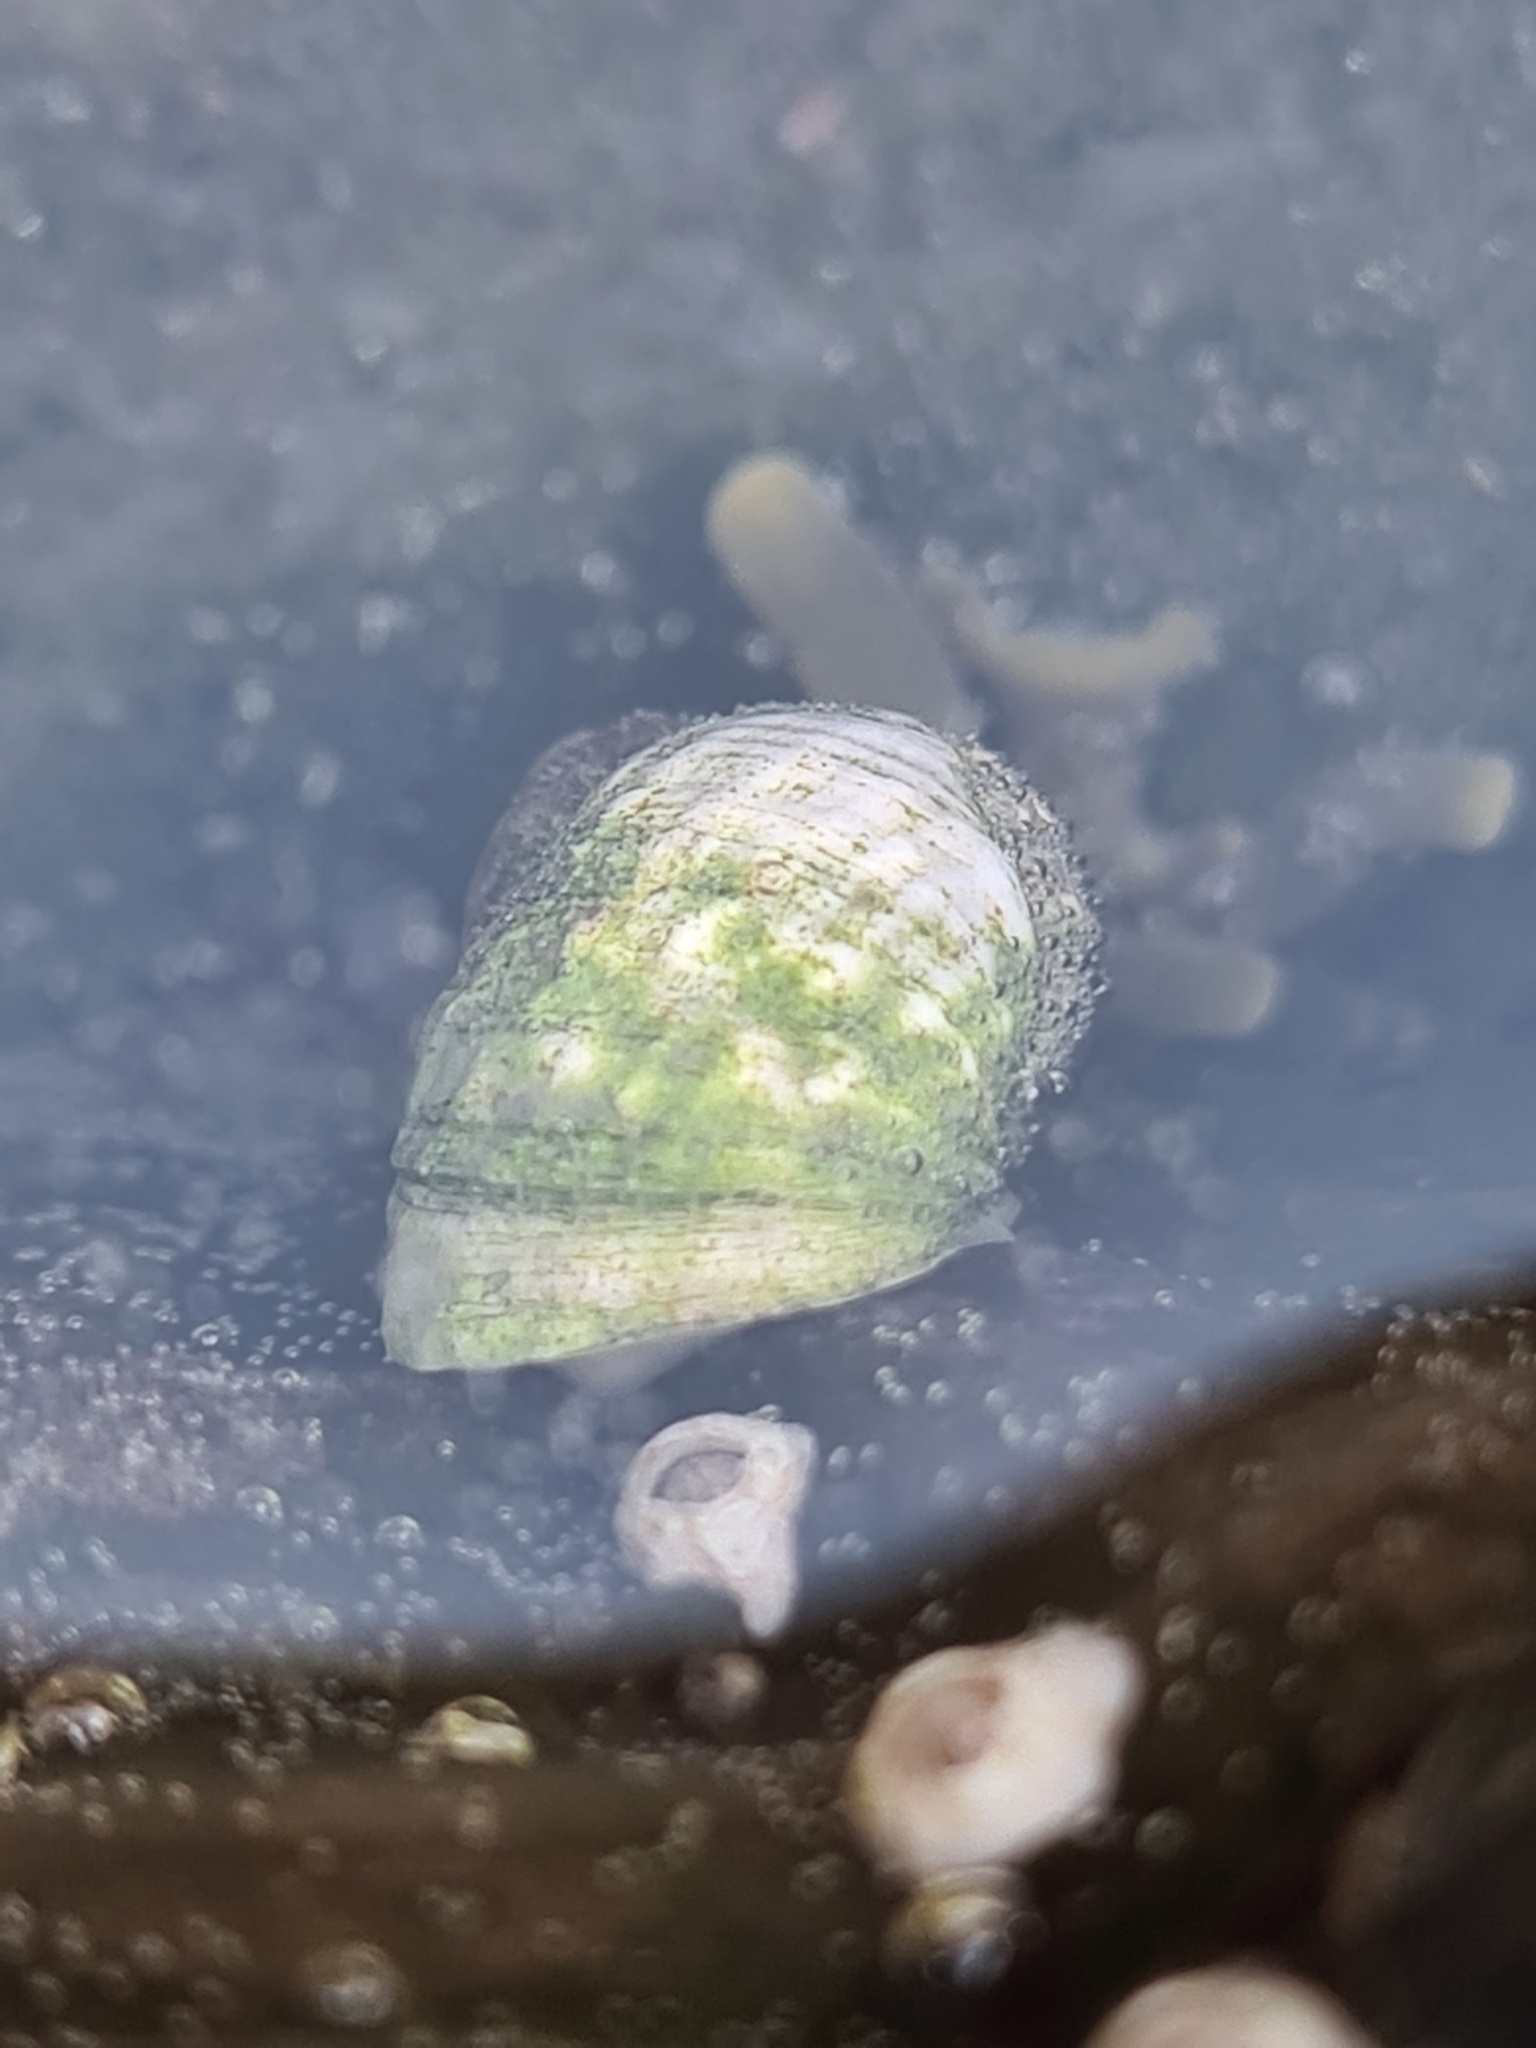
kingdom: Animalia
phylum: Mollusca
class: Gastropoda
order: Littorinimorpha
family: Littorinidae
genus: Littorina
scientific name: Littorina saxatilis
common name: Black-lined periwinkle
